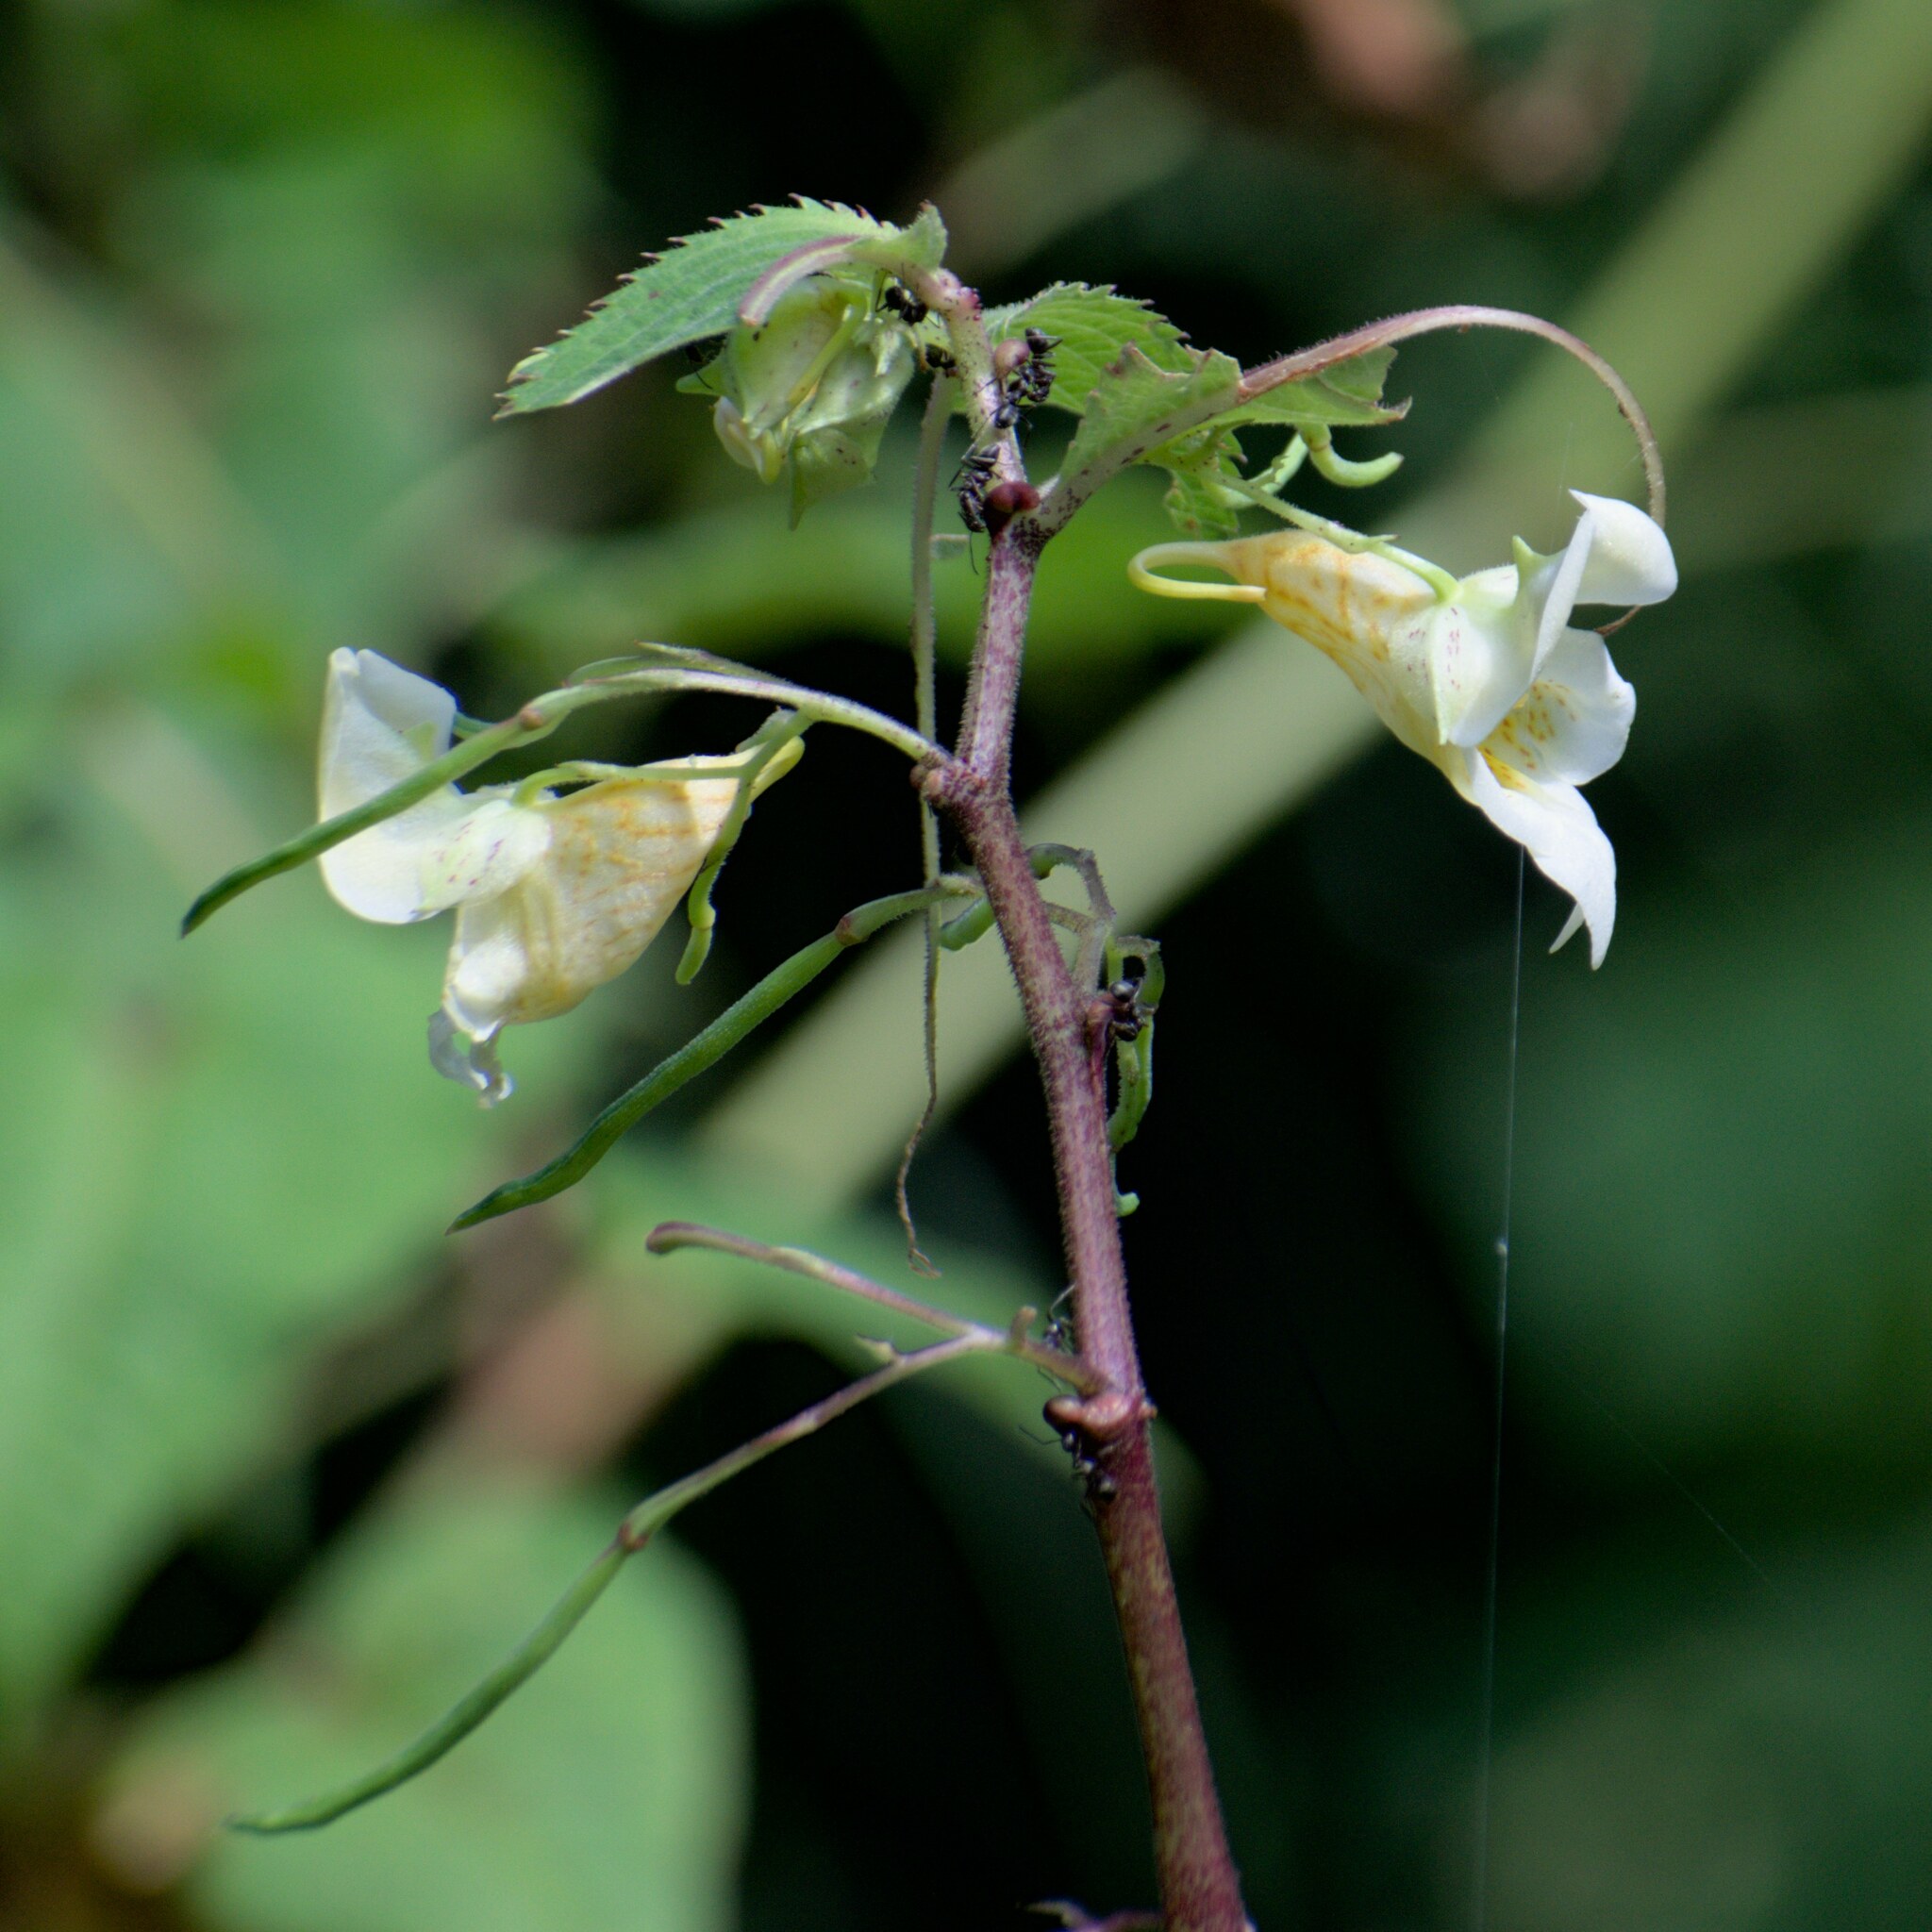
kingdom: Plantae
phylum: Tracheophyta
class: Magnoliopsida
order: Ericales
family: Balsaminaceae
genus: Impatiens
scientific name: Impatiens tricornis
